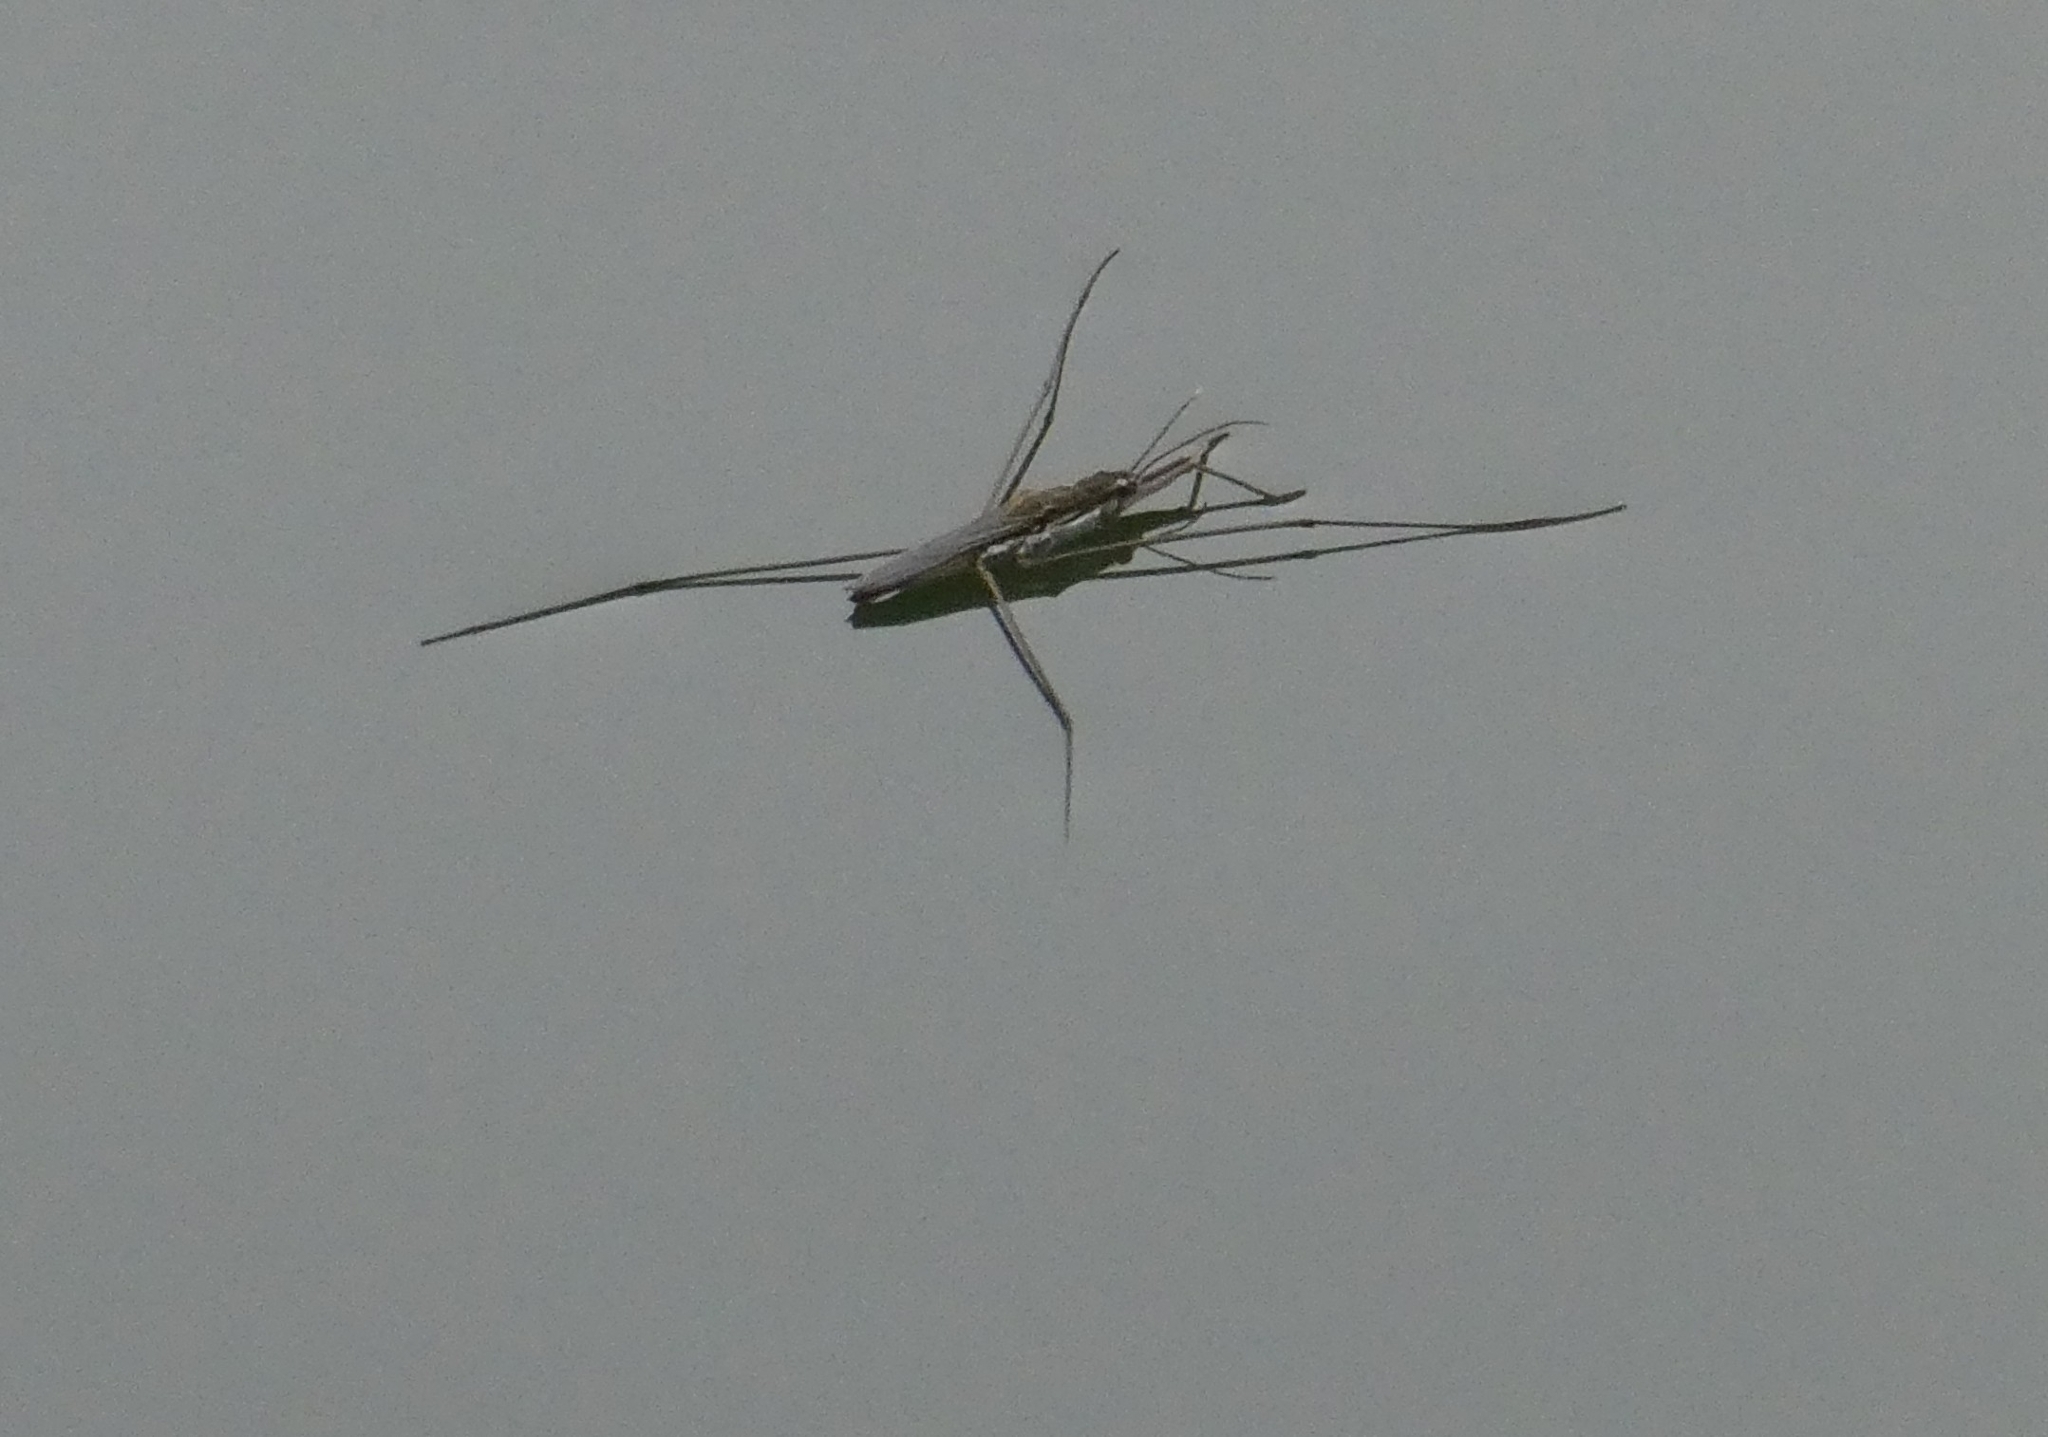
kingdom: Animalia
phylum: Arthropoda
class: Insecta
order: Hemiptera
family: Gerridae
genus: Aquarius
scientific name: Aquarius paludum
